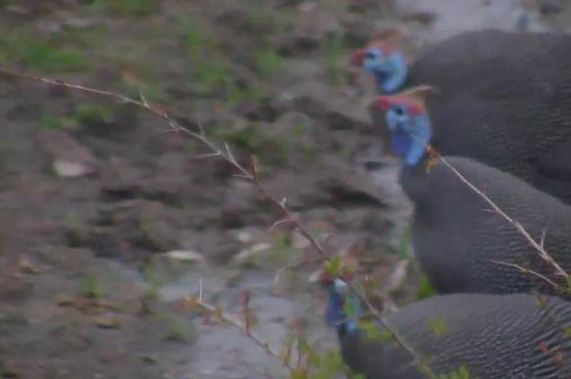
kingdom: Animalia
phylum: Chordata
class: Aves
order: Galliformes
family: Numididae
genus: Numida
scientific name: Numida meleagris
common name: Helmeted guineafowl
